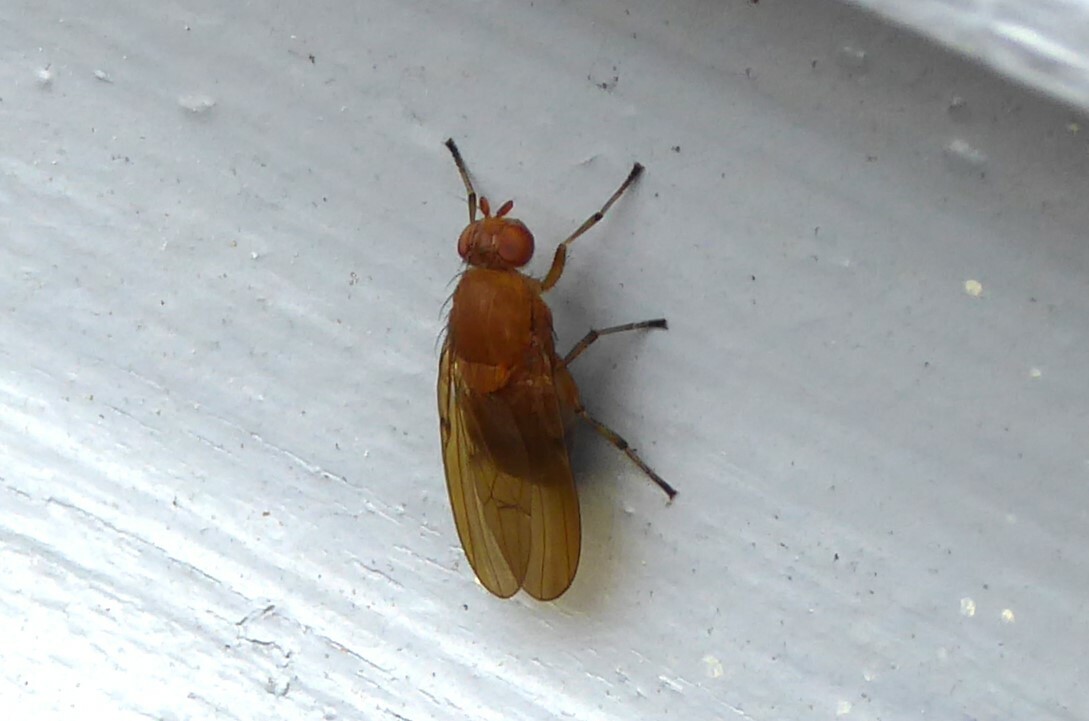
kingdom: Animalia
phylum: Arthropoda
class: Insecta
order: Diptera
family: Lauxaniidae
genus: Sapromyza
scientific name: Sapromyza simillima
